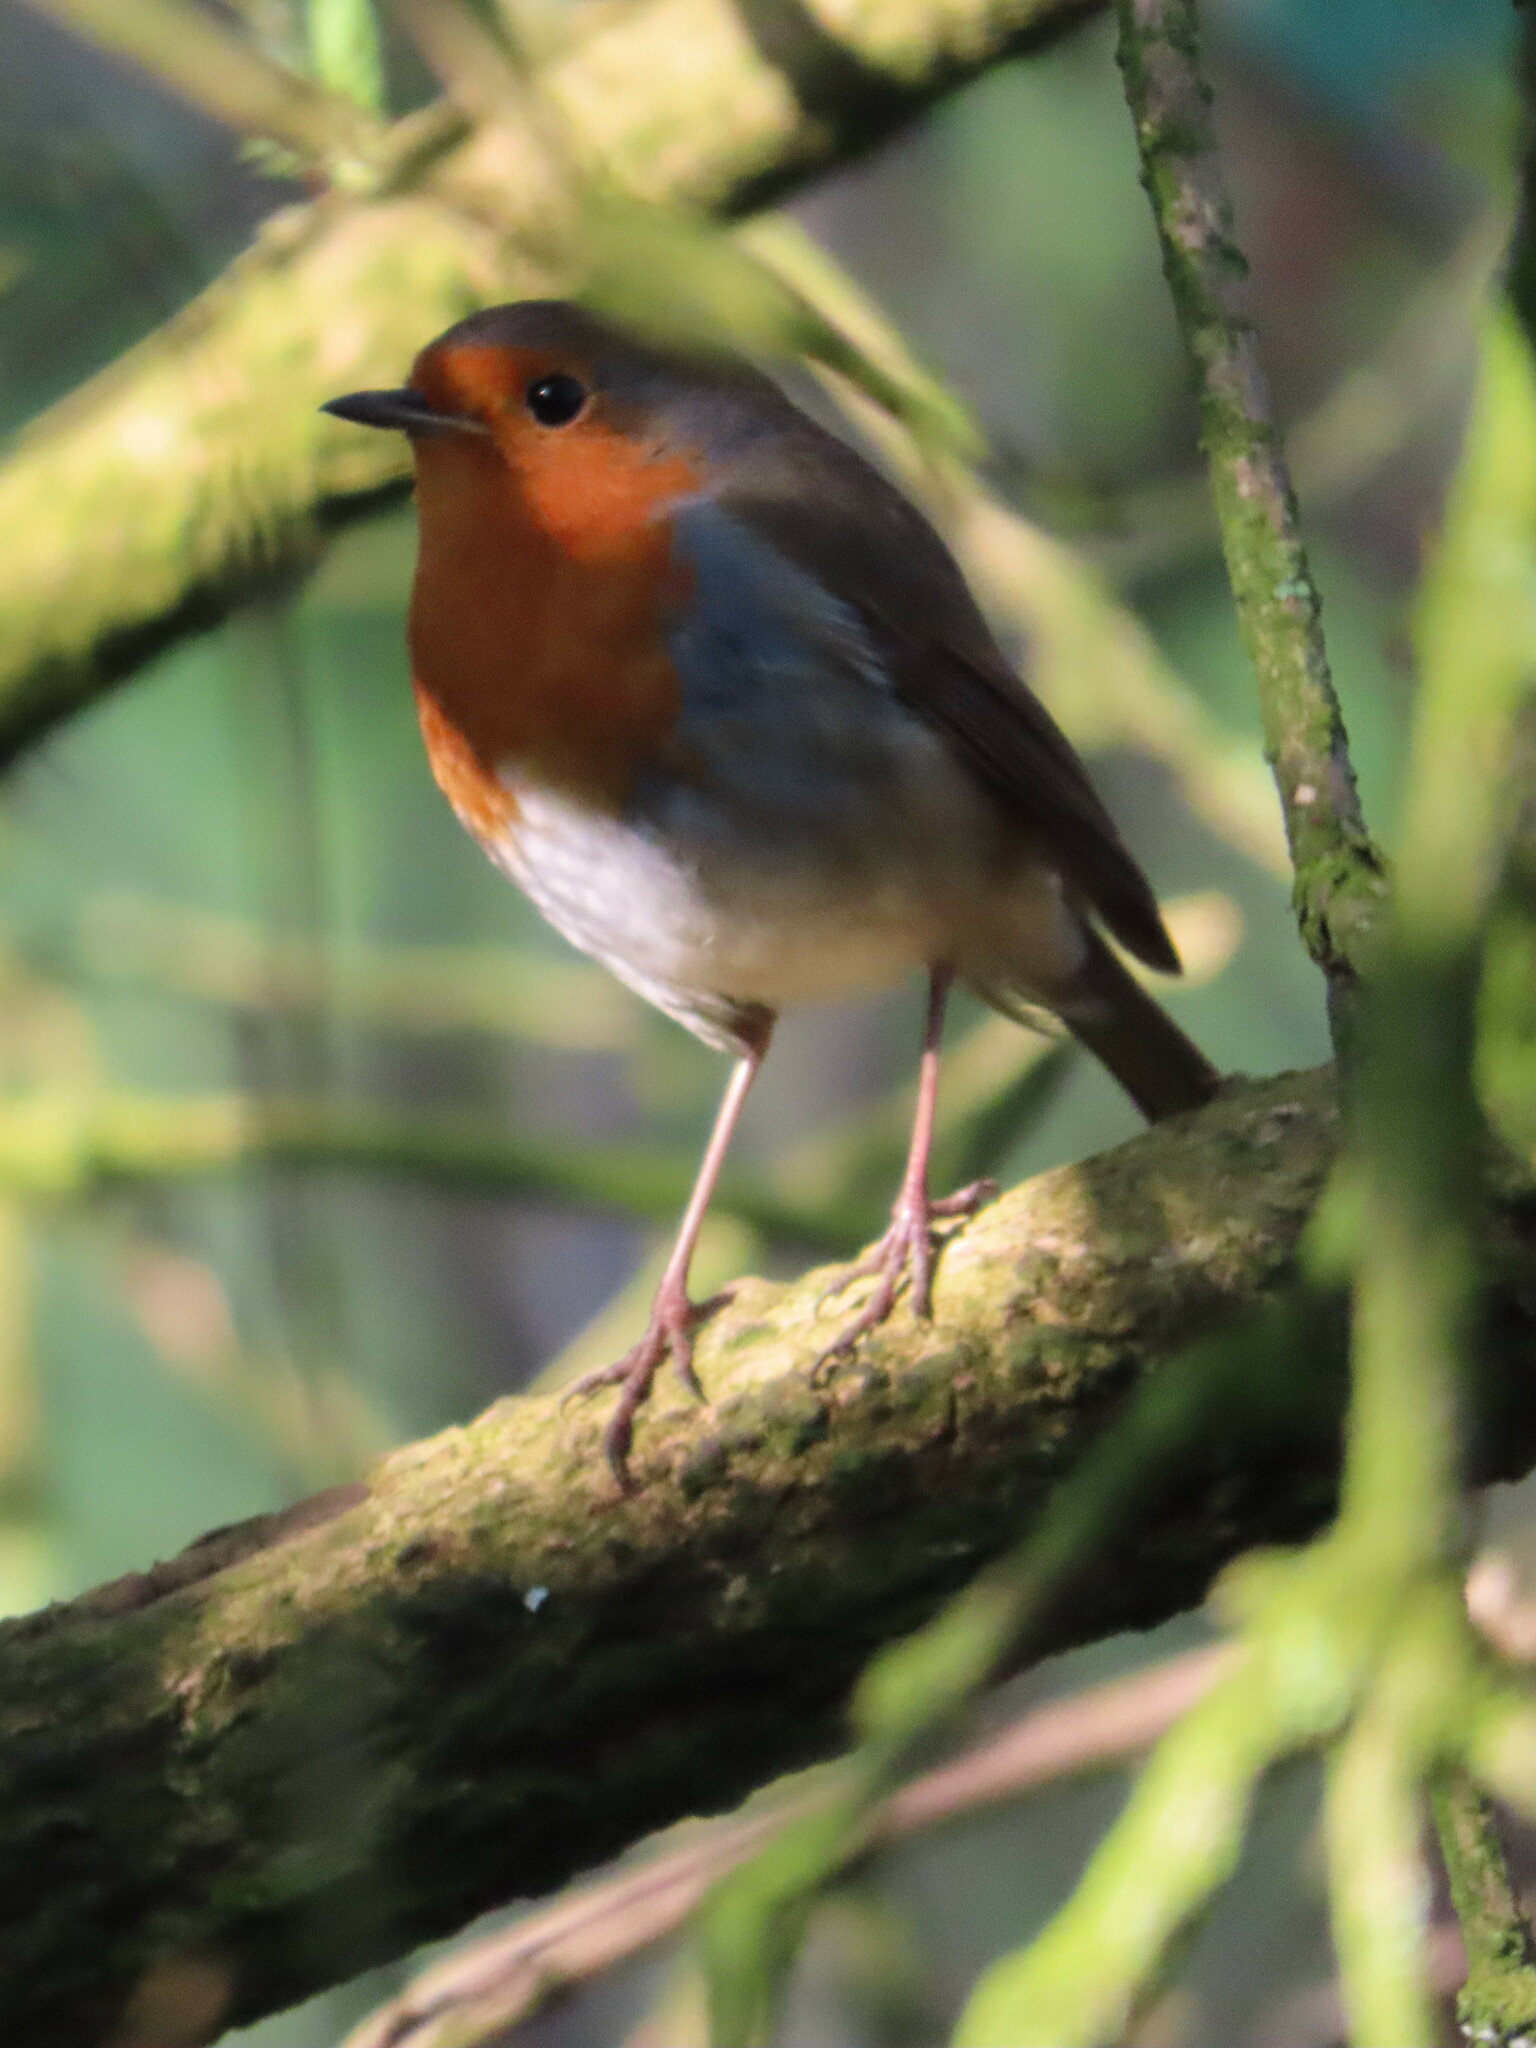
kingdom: Animalia
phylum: Chordata
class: Aves
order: Passeriformes
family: Muscicapidae
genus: Erithacus
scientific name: Erithacus rubecula
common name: European robin
